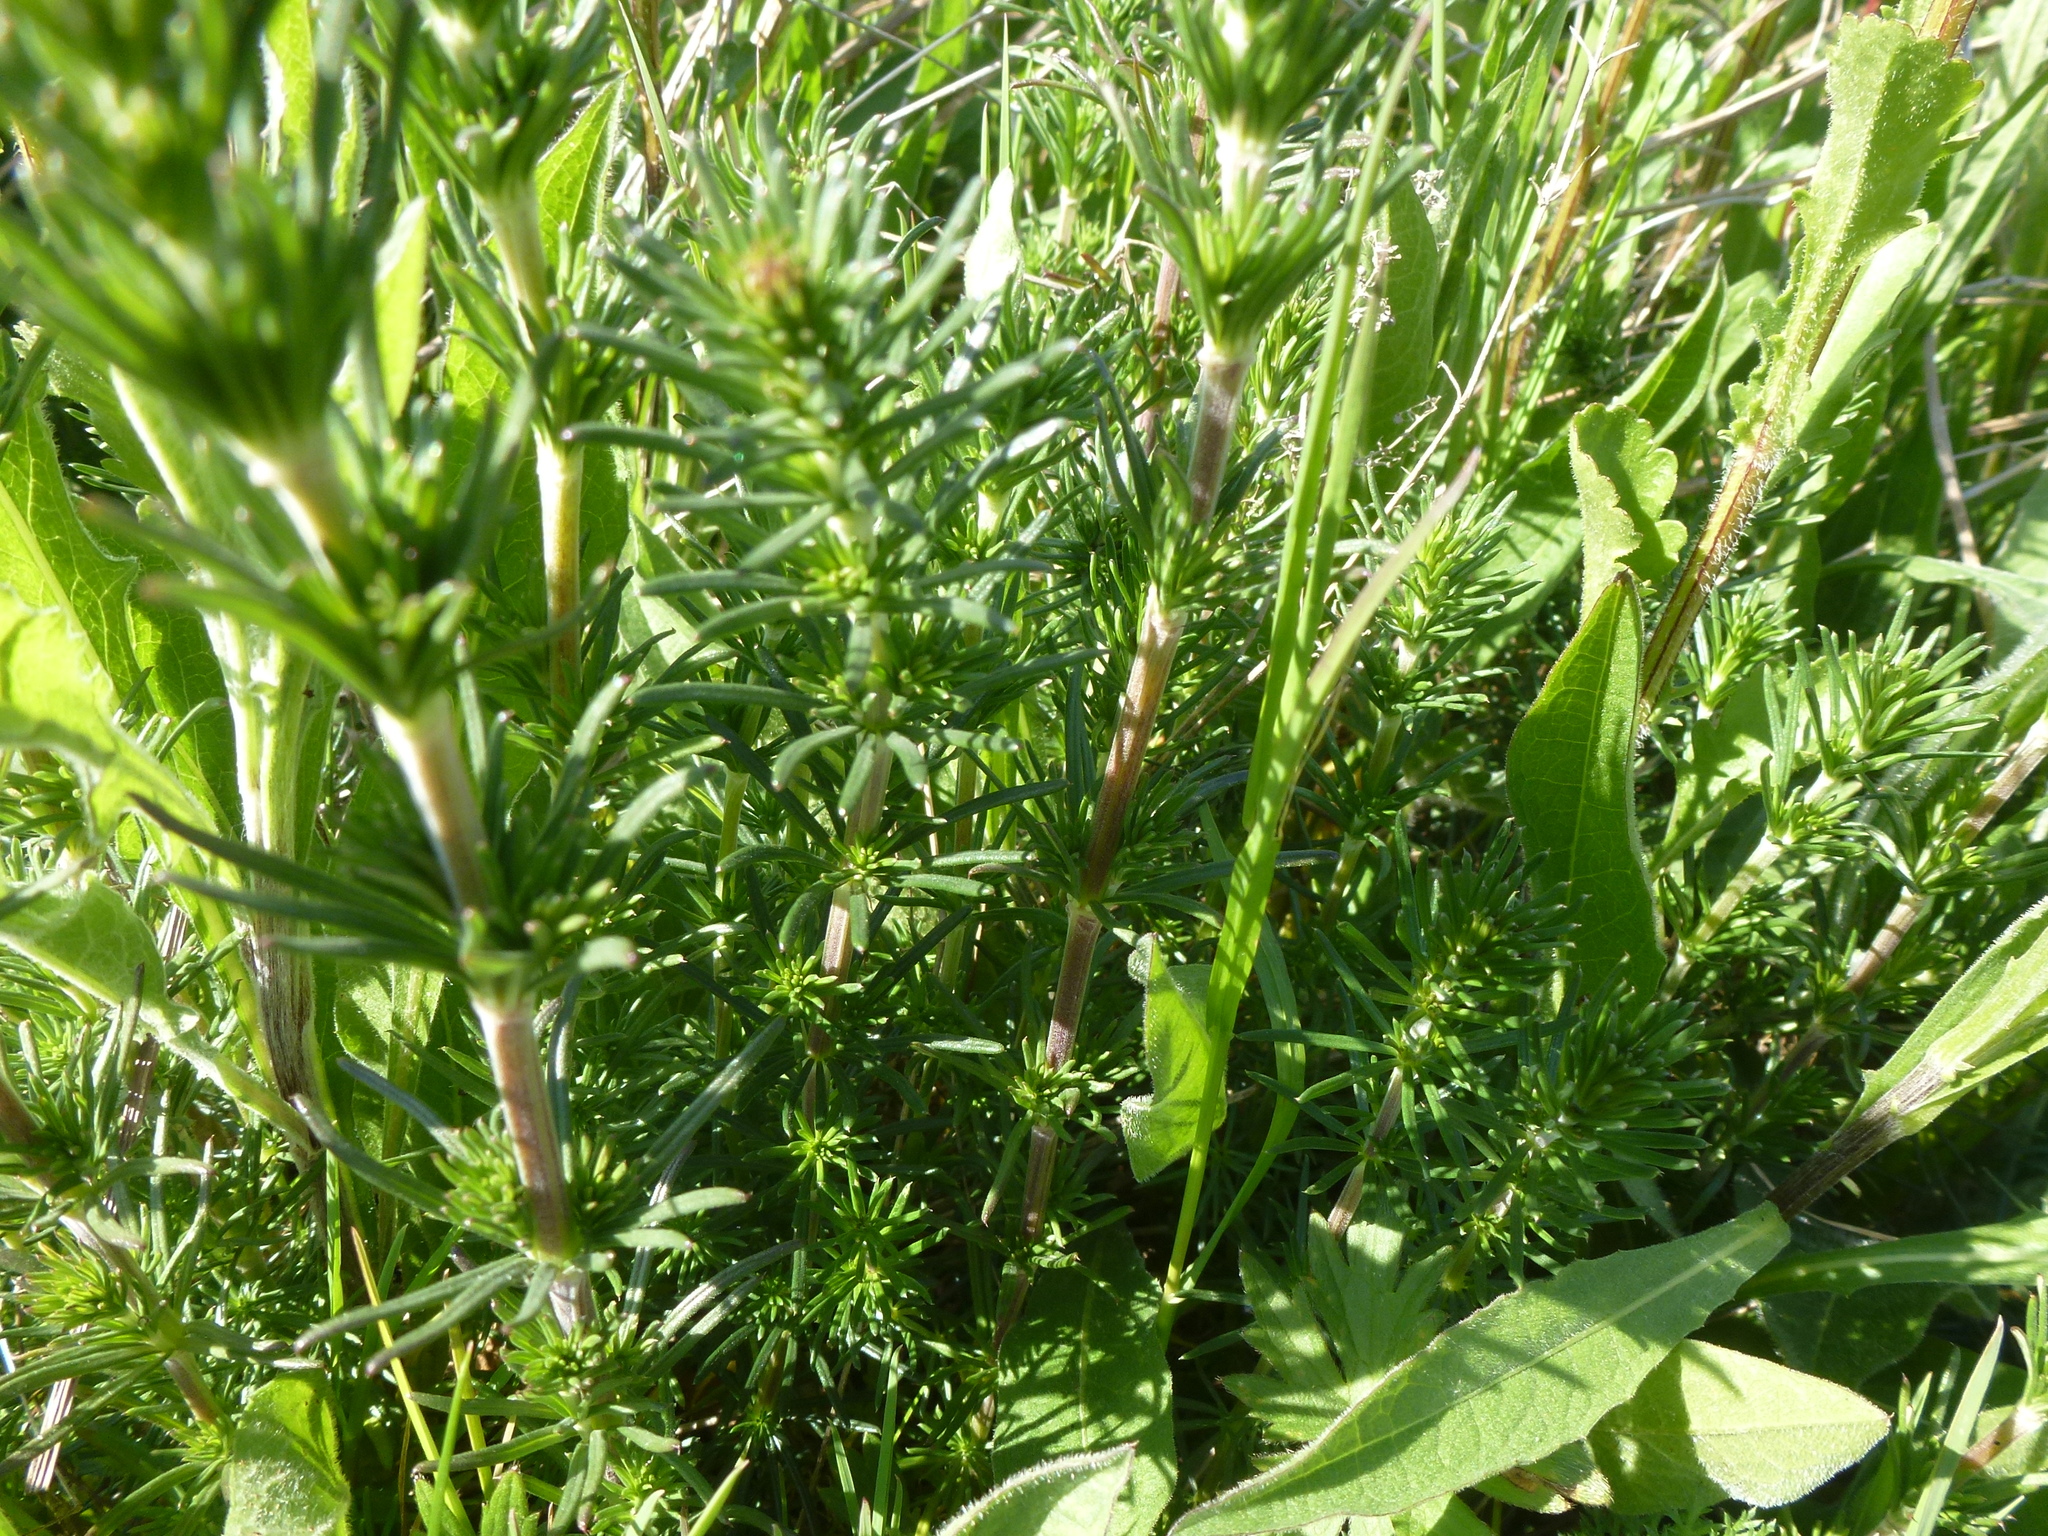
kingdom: Plantae
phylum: Tracheophyta
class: Magnoliopsida
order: Gentianales
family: Rubiaceae
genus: Galium
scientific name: Galium verum
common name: Lady's bedstraw
